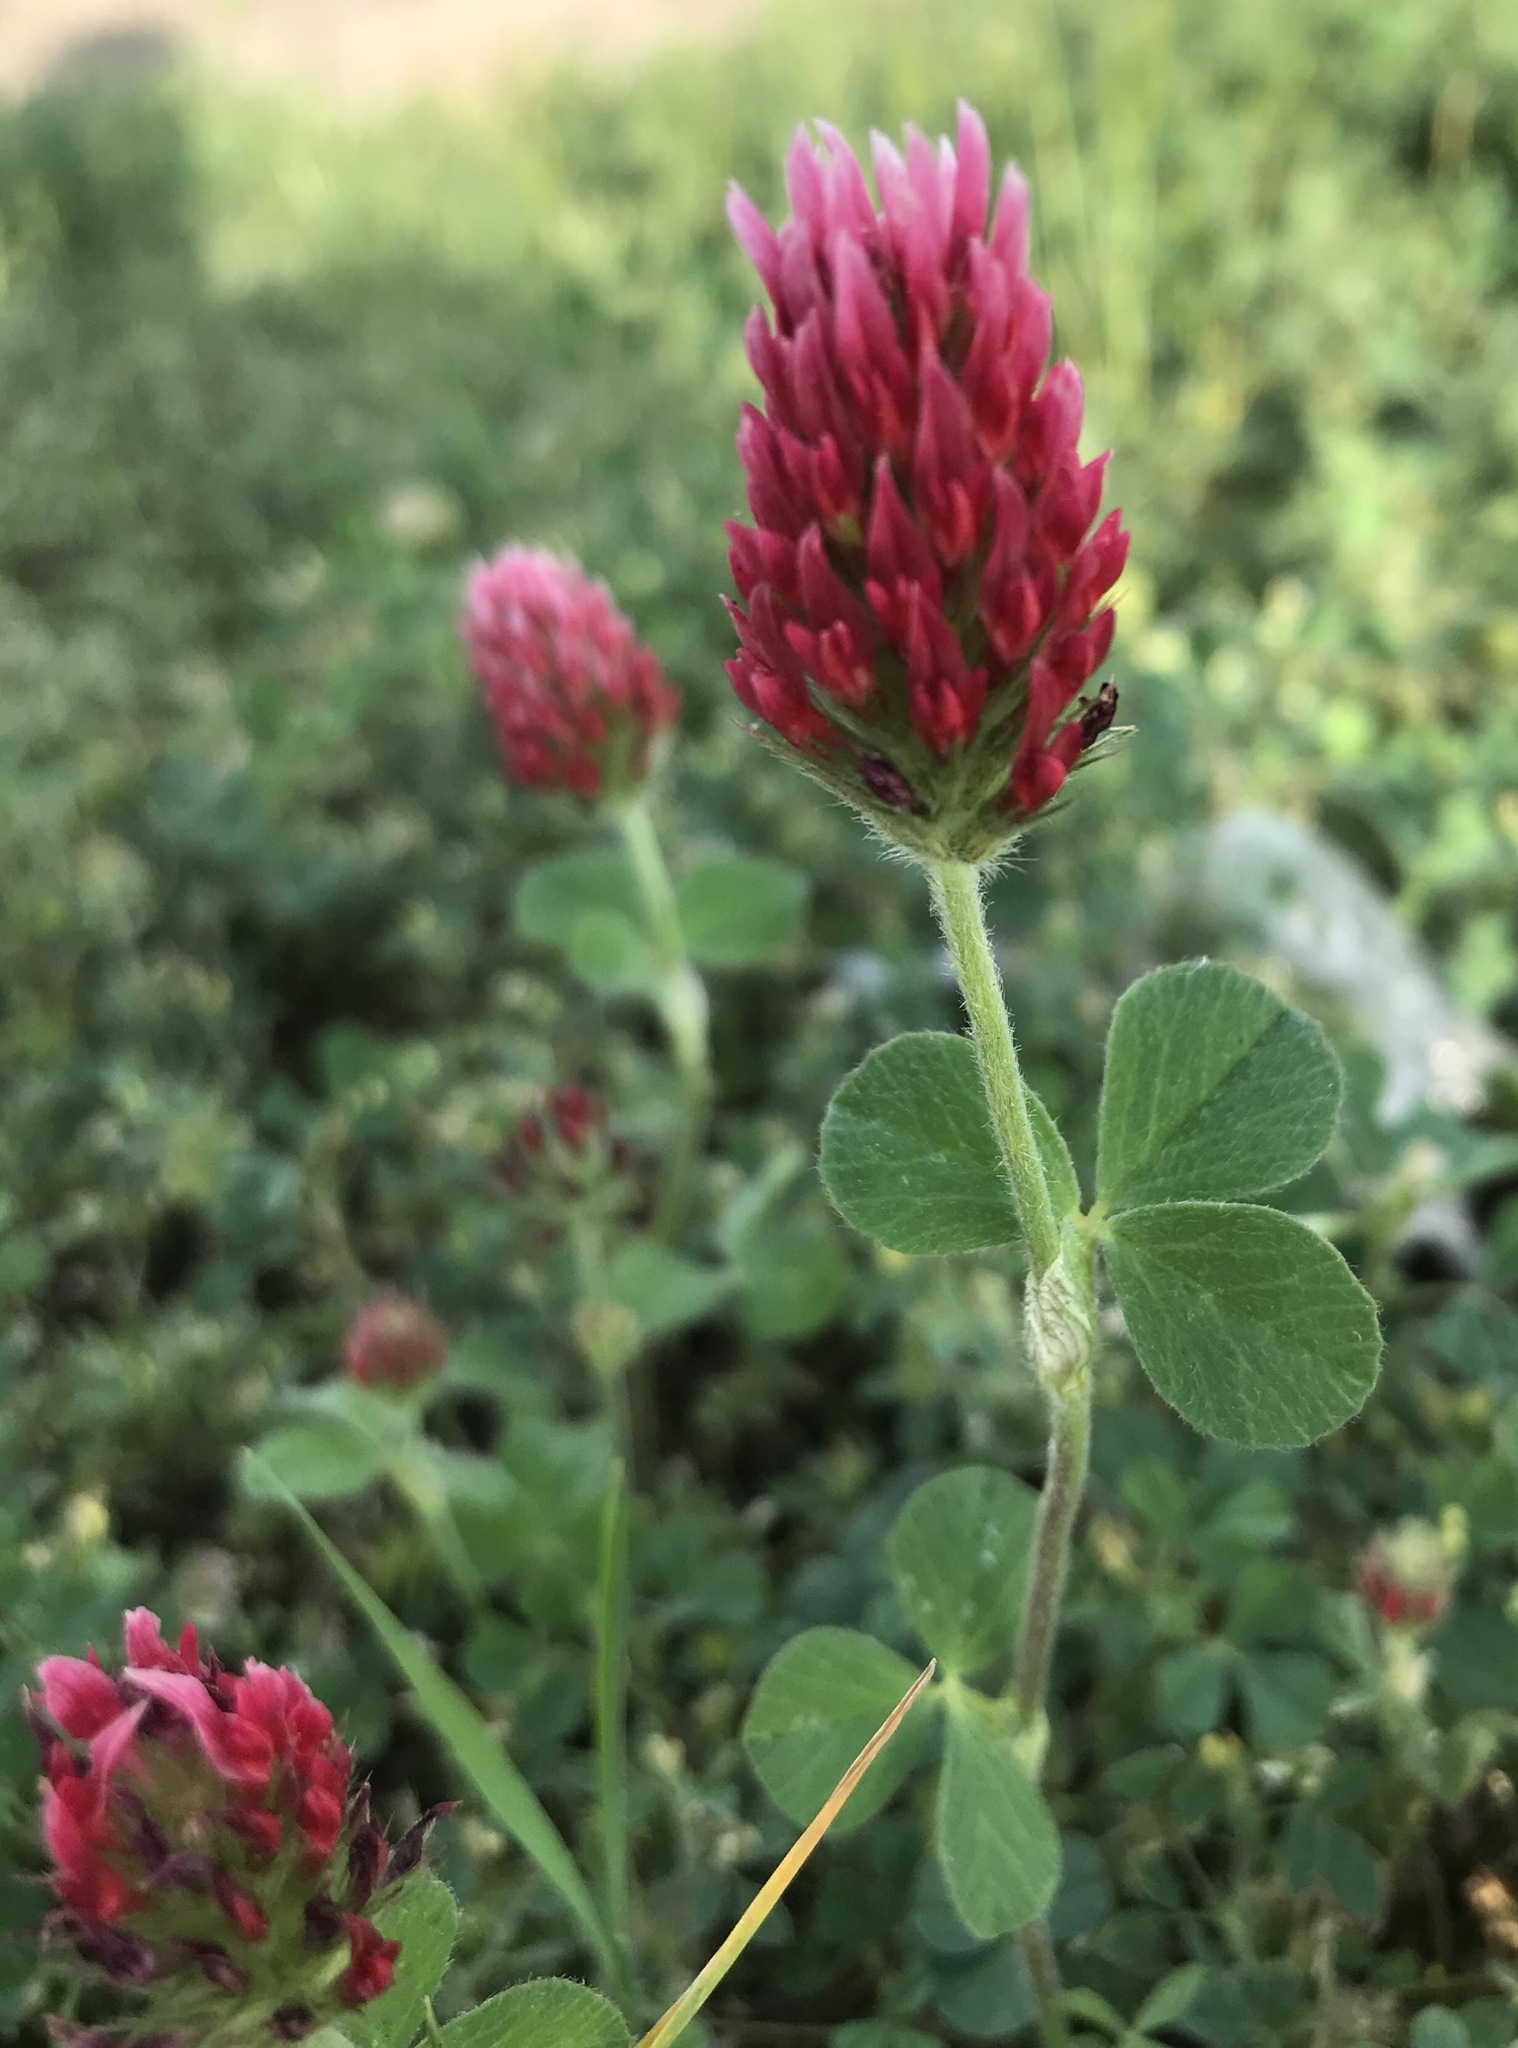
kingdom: Plantae
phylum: Tracheophyta
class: Magnoliopsida
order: Fabales
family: Fabaceae
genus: Trifolium
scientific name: Trifolium incarnatum
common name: Crimson clover
